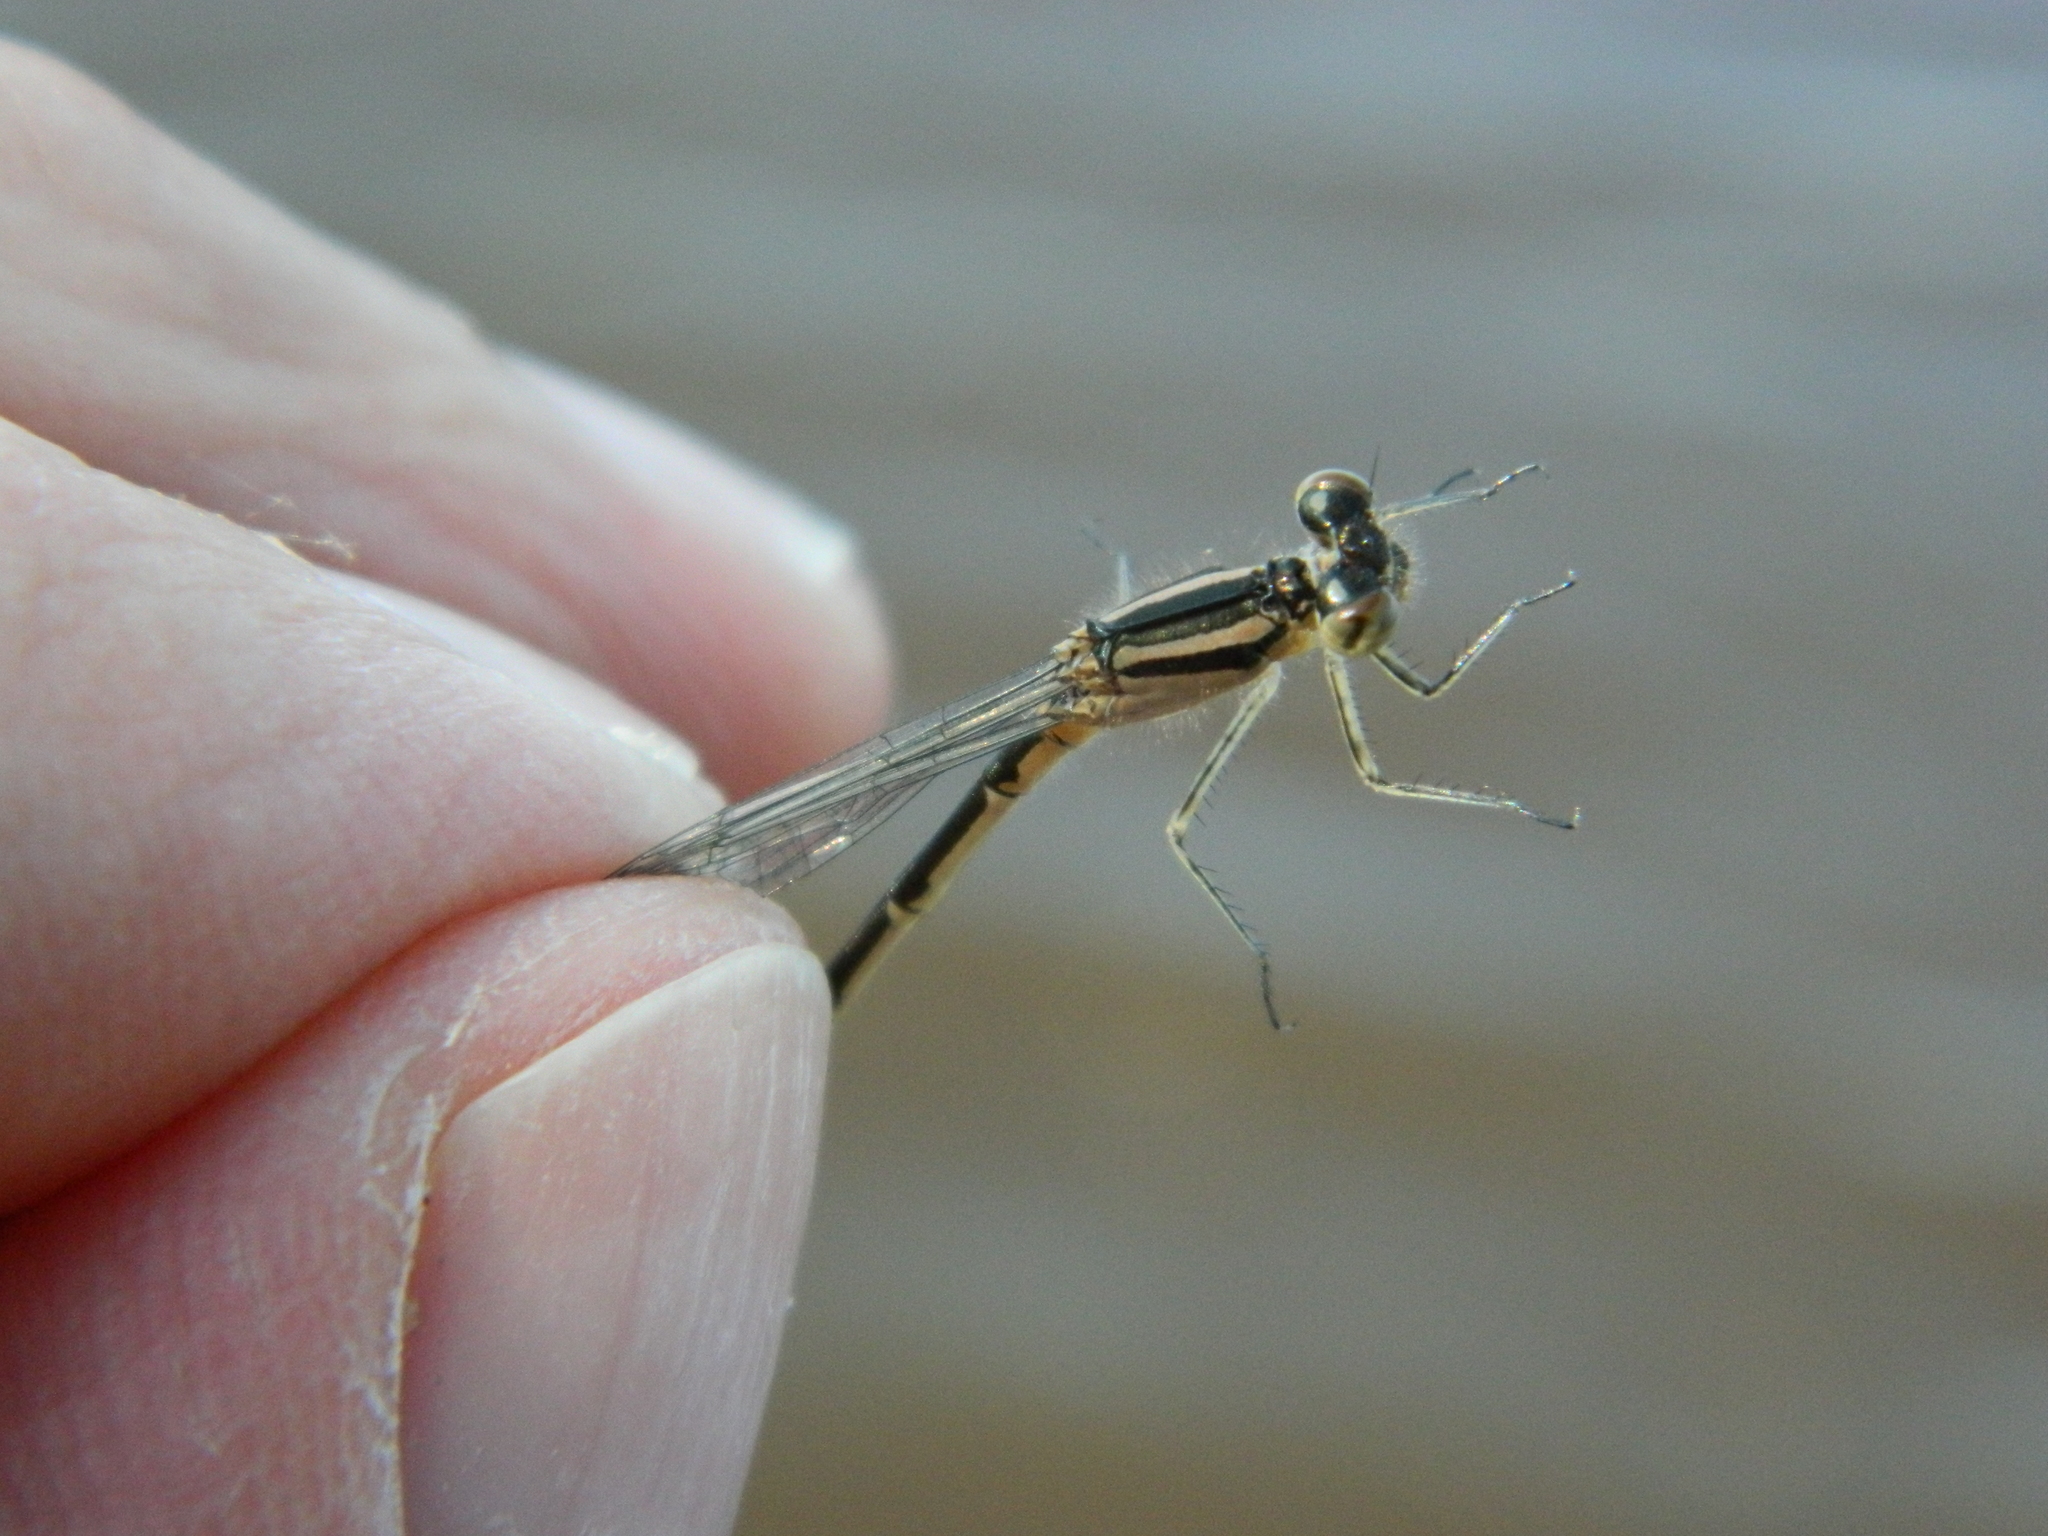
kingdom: Animalia
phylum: Arthropoda
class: Insecta
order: Odonata
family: Coenagrionidae
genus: Enallagma
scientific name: Enallagma hageni
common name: Hagen's bluet
